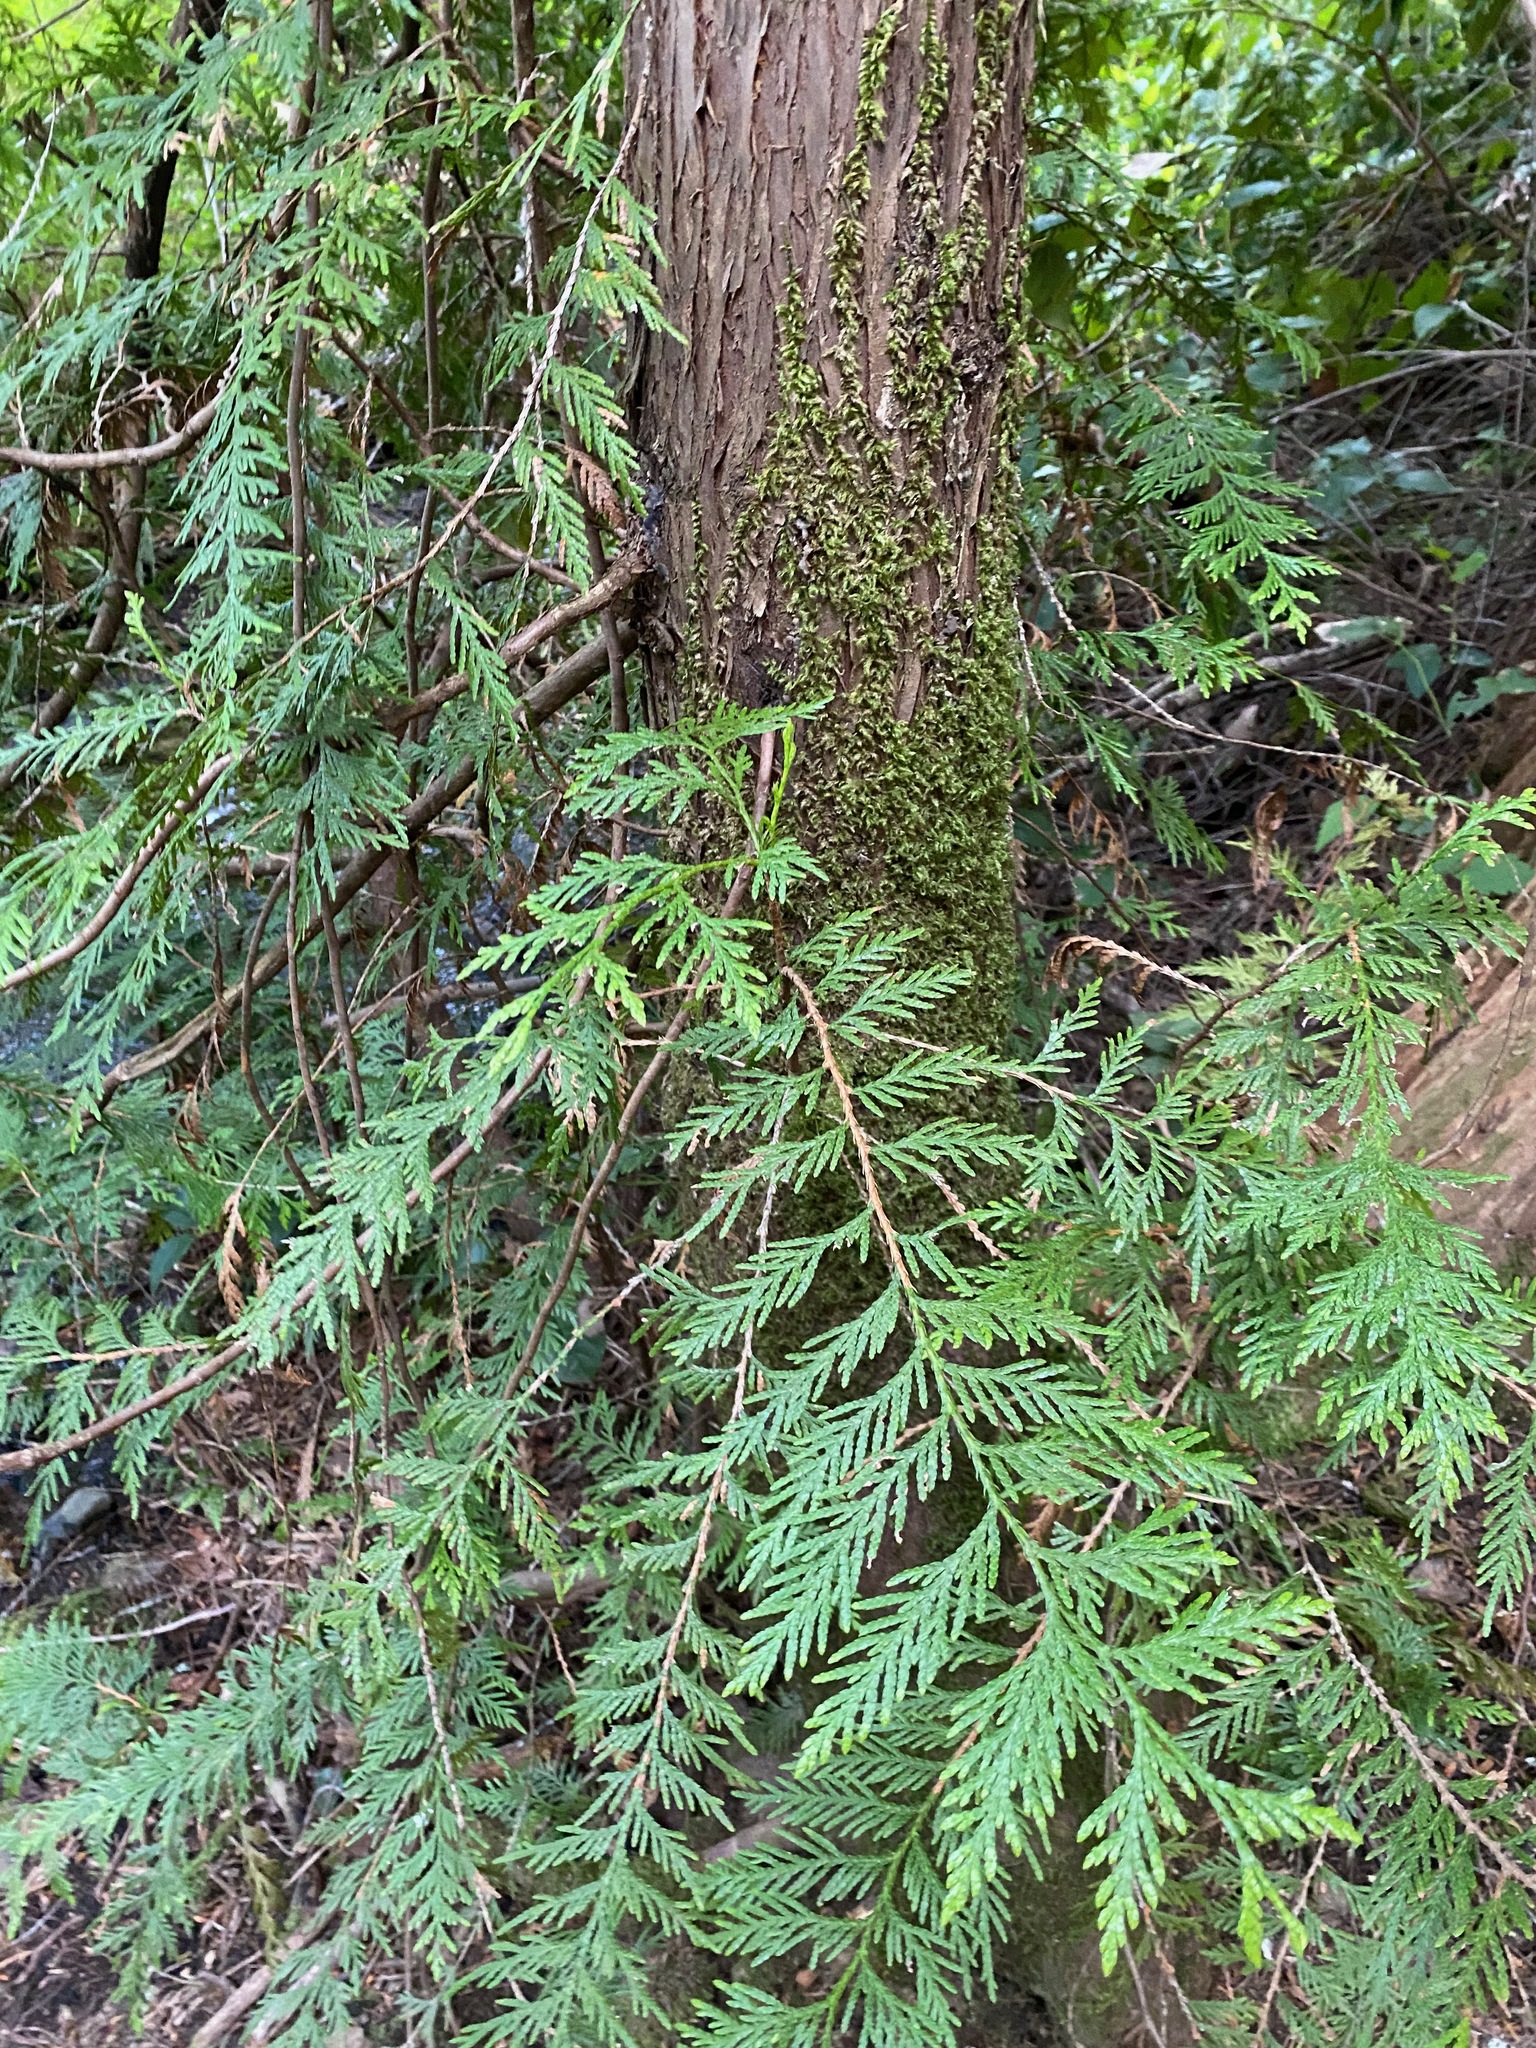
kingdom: Plantae
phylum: Tracheophyta
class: Pinopsida
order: Pinales
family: Cupressaceae
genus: Thuja
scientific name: Thuja plicata
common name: Western red-cedar
